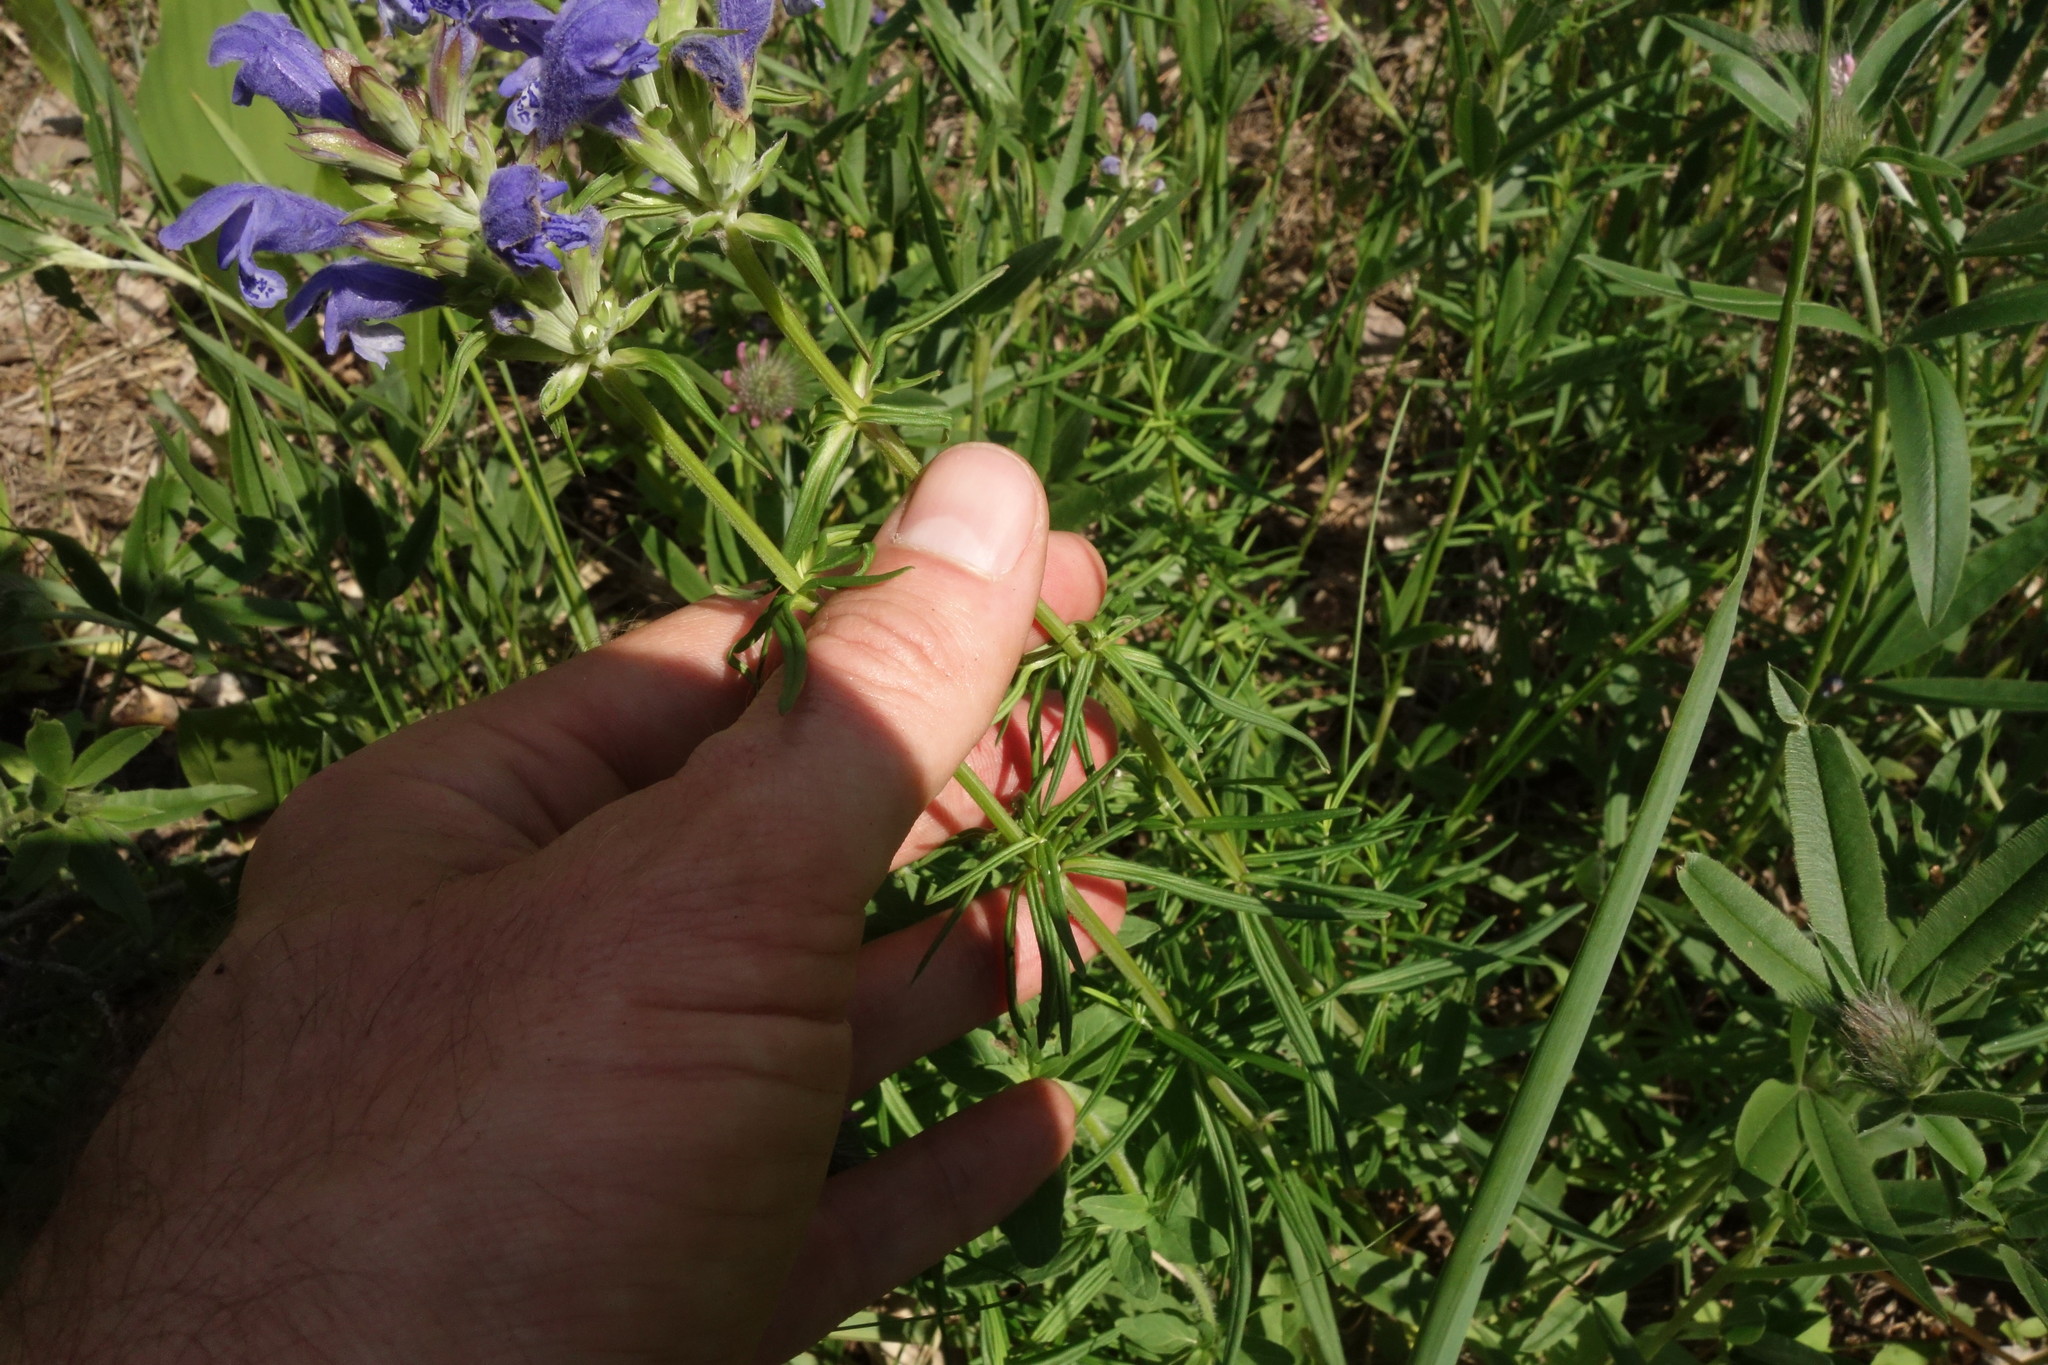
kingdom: Plantae
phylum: Tracheophyta
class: Magnoliopsida
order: Lamiales
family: Lamiaceae
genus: Dracocephalum
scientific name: Dracocephalum ruyschiana
